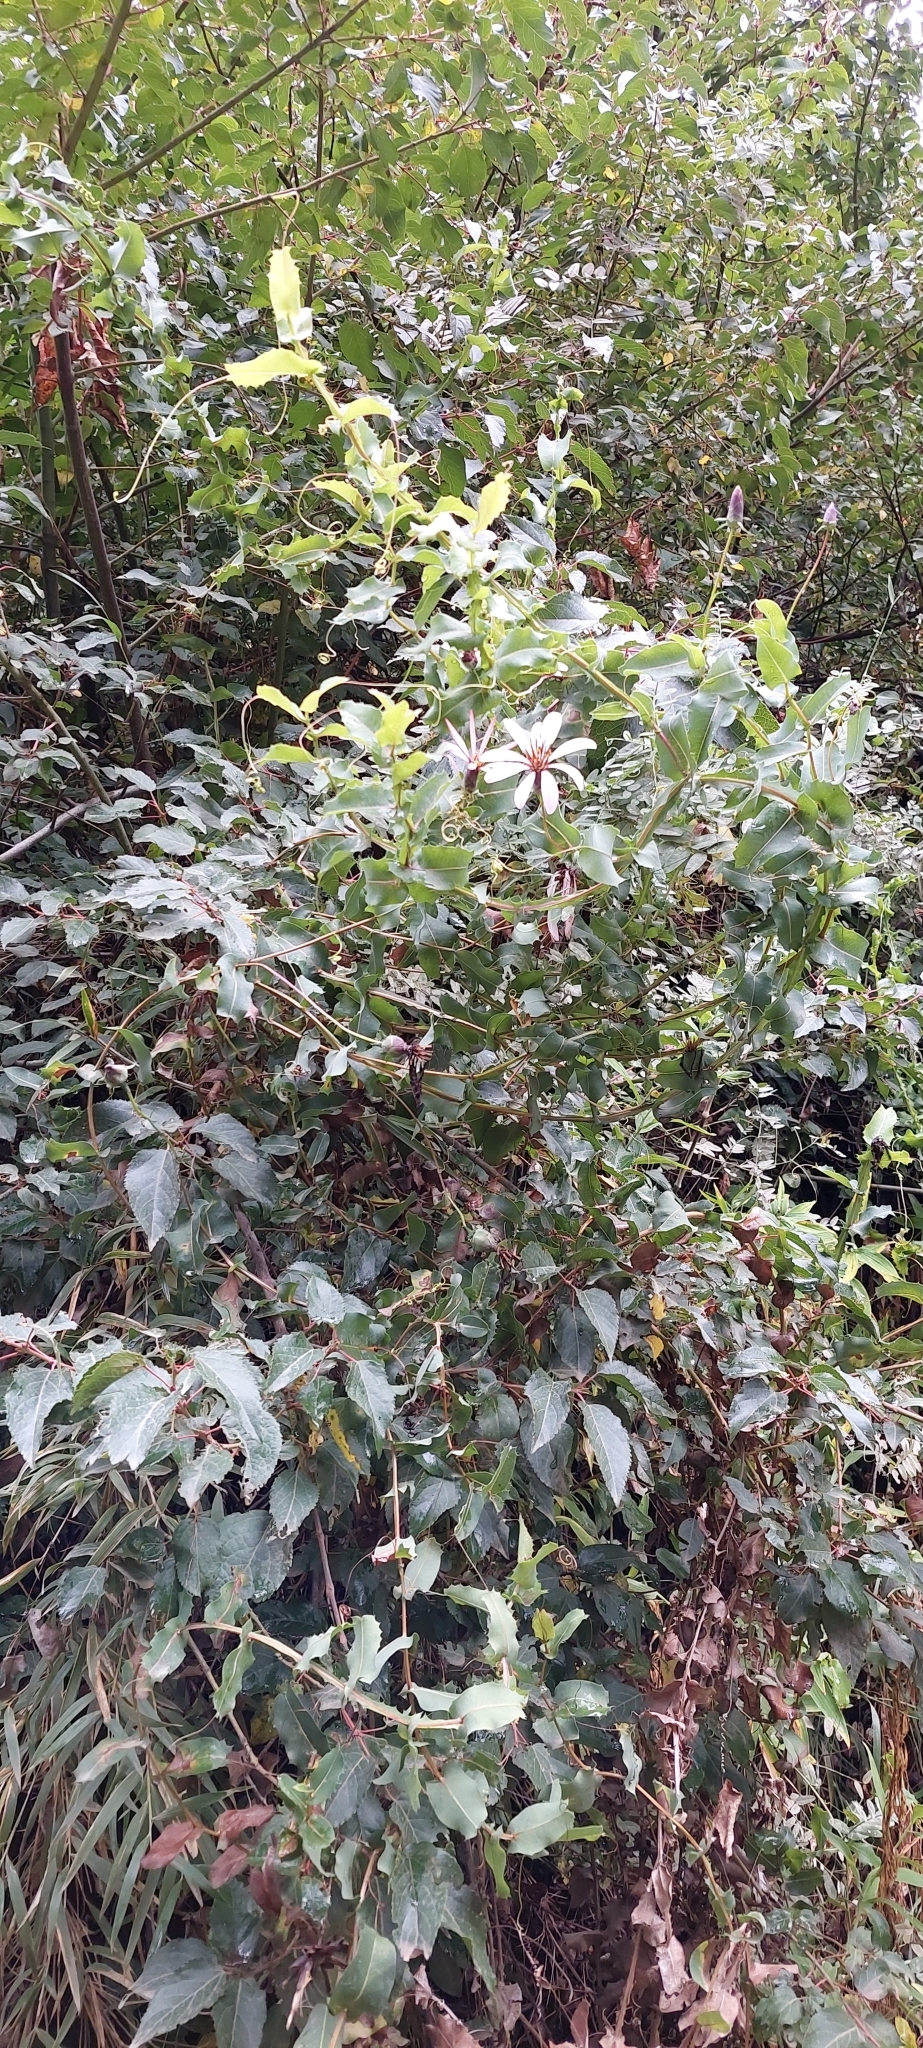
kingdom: Plantae
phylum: Tracheophyta
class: Magnoliopsida
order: Asterales
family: Asteraceae
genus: Mutisia
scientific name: Mutisia spinosa
